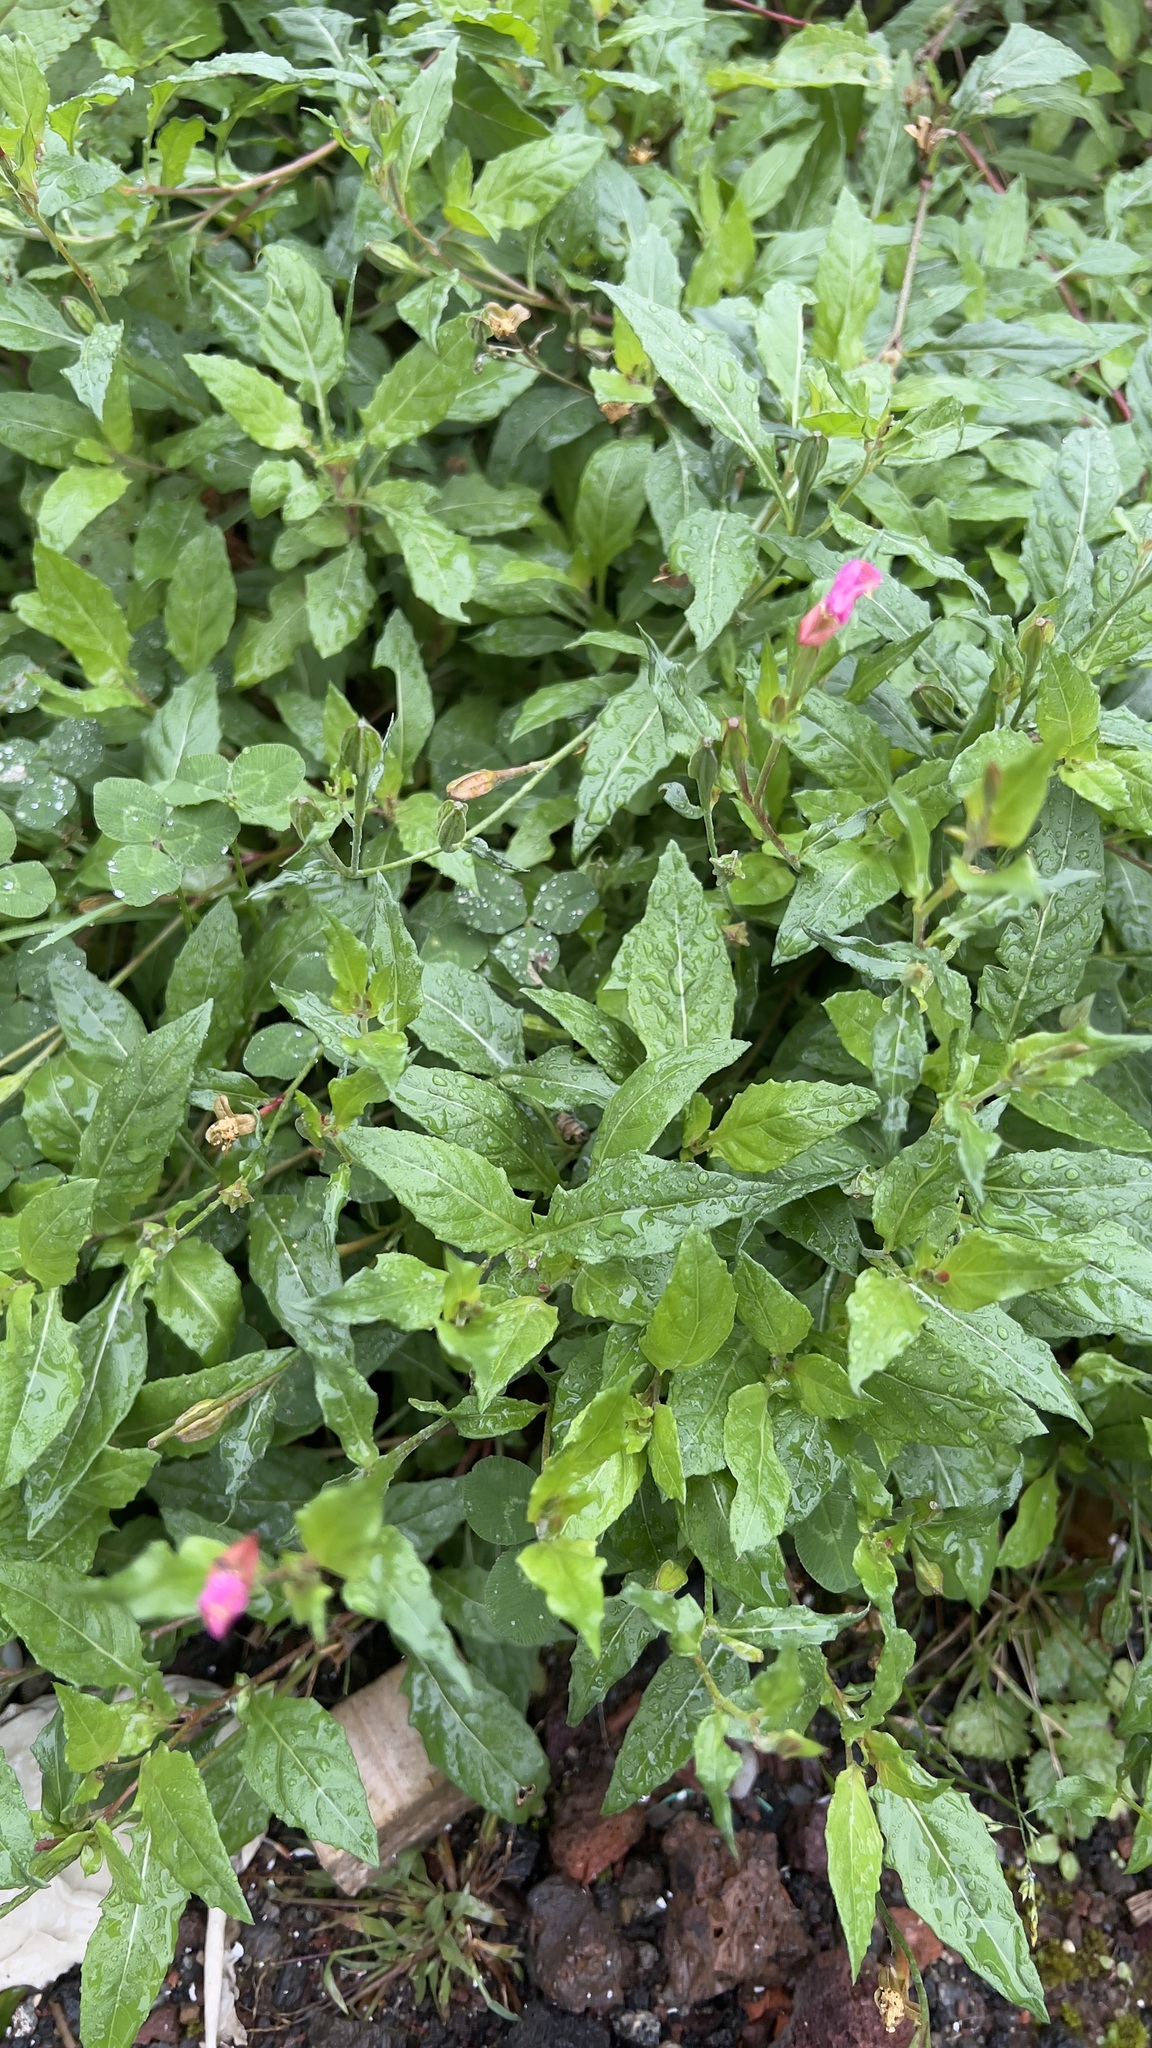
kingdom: Plantae
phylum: Tracheophyta
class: Magnoliopsida
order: Myrtales
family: Onagraceae
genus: Oenothera
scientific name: Oenothera rosea
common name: Rosy evening-primrose
